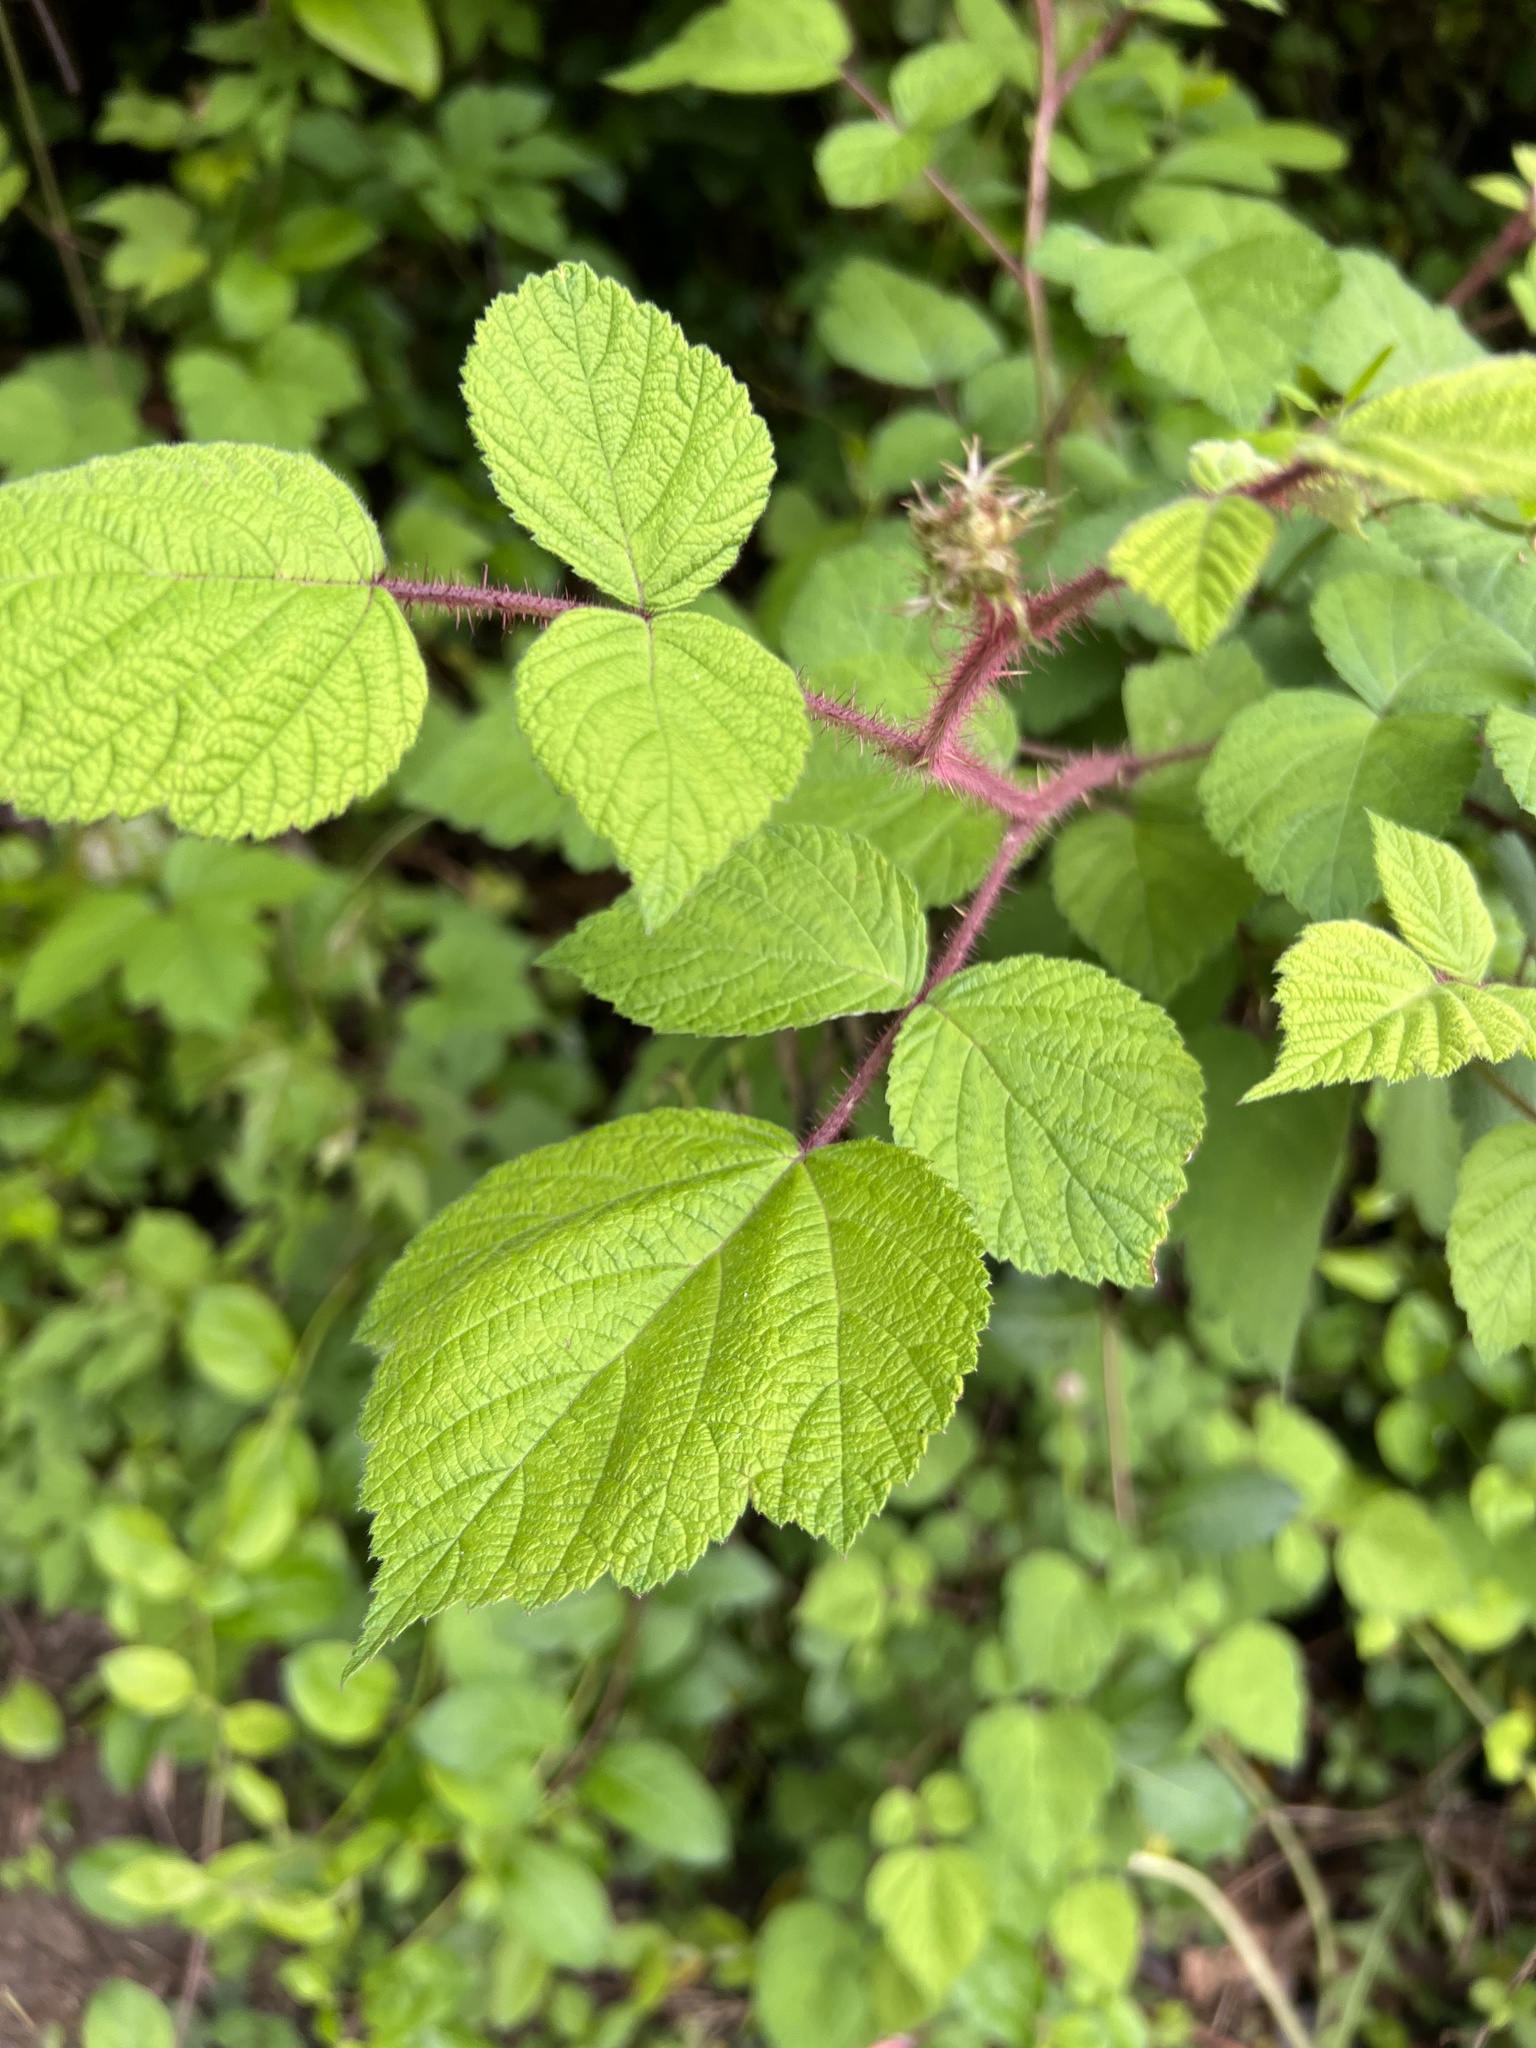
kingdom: Plantae
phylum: Tracheophyta
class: Magnoliopsida
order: Rosales
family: Rosaceae
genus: Rubus
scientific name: Rubus phoenicolasius
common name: Japanese wineberry
